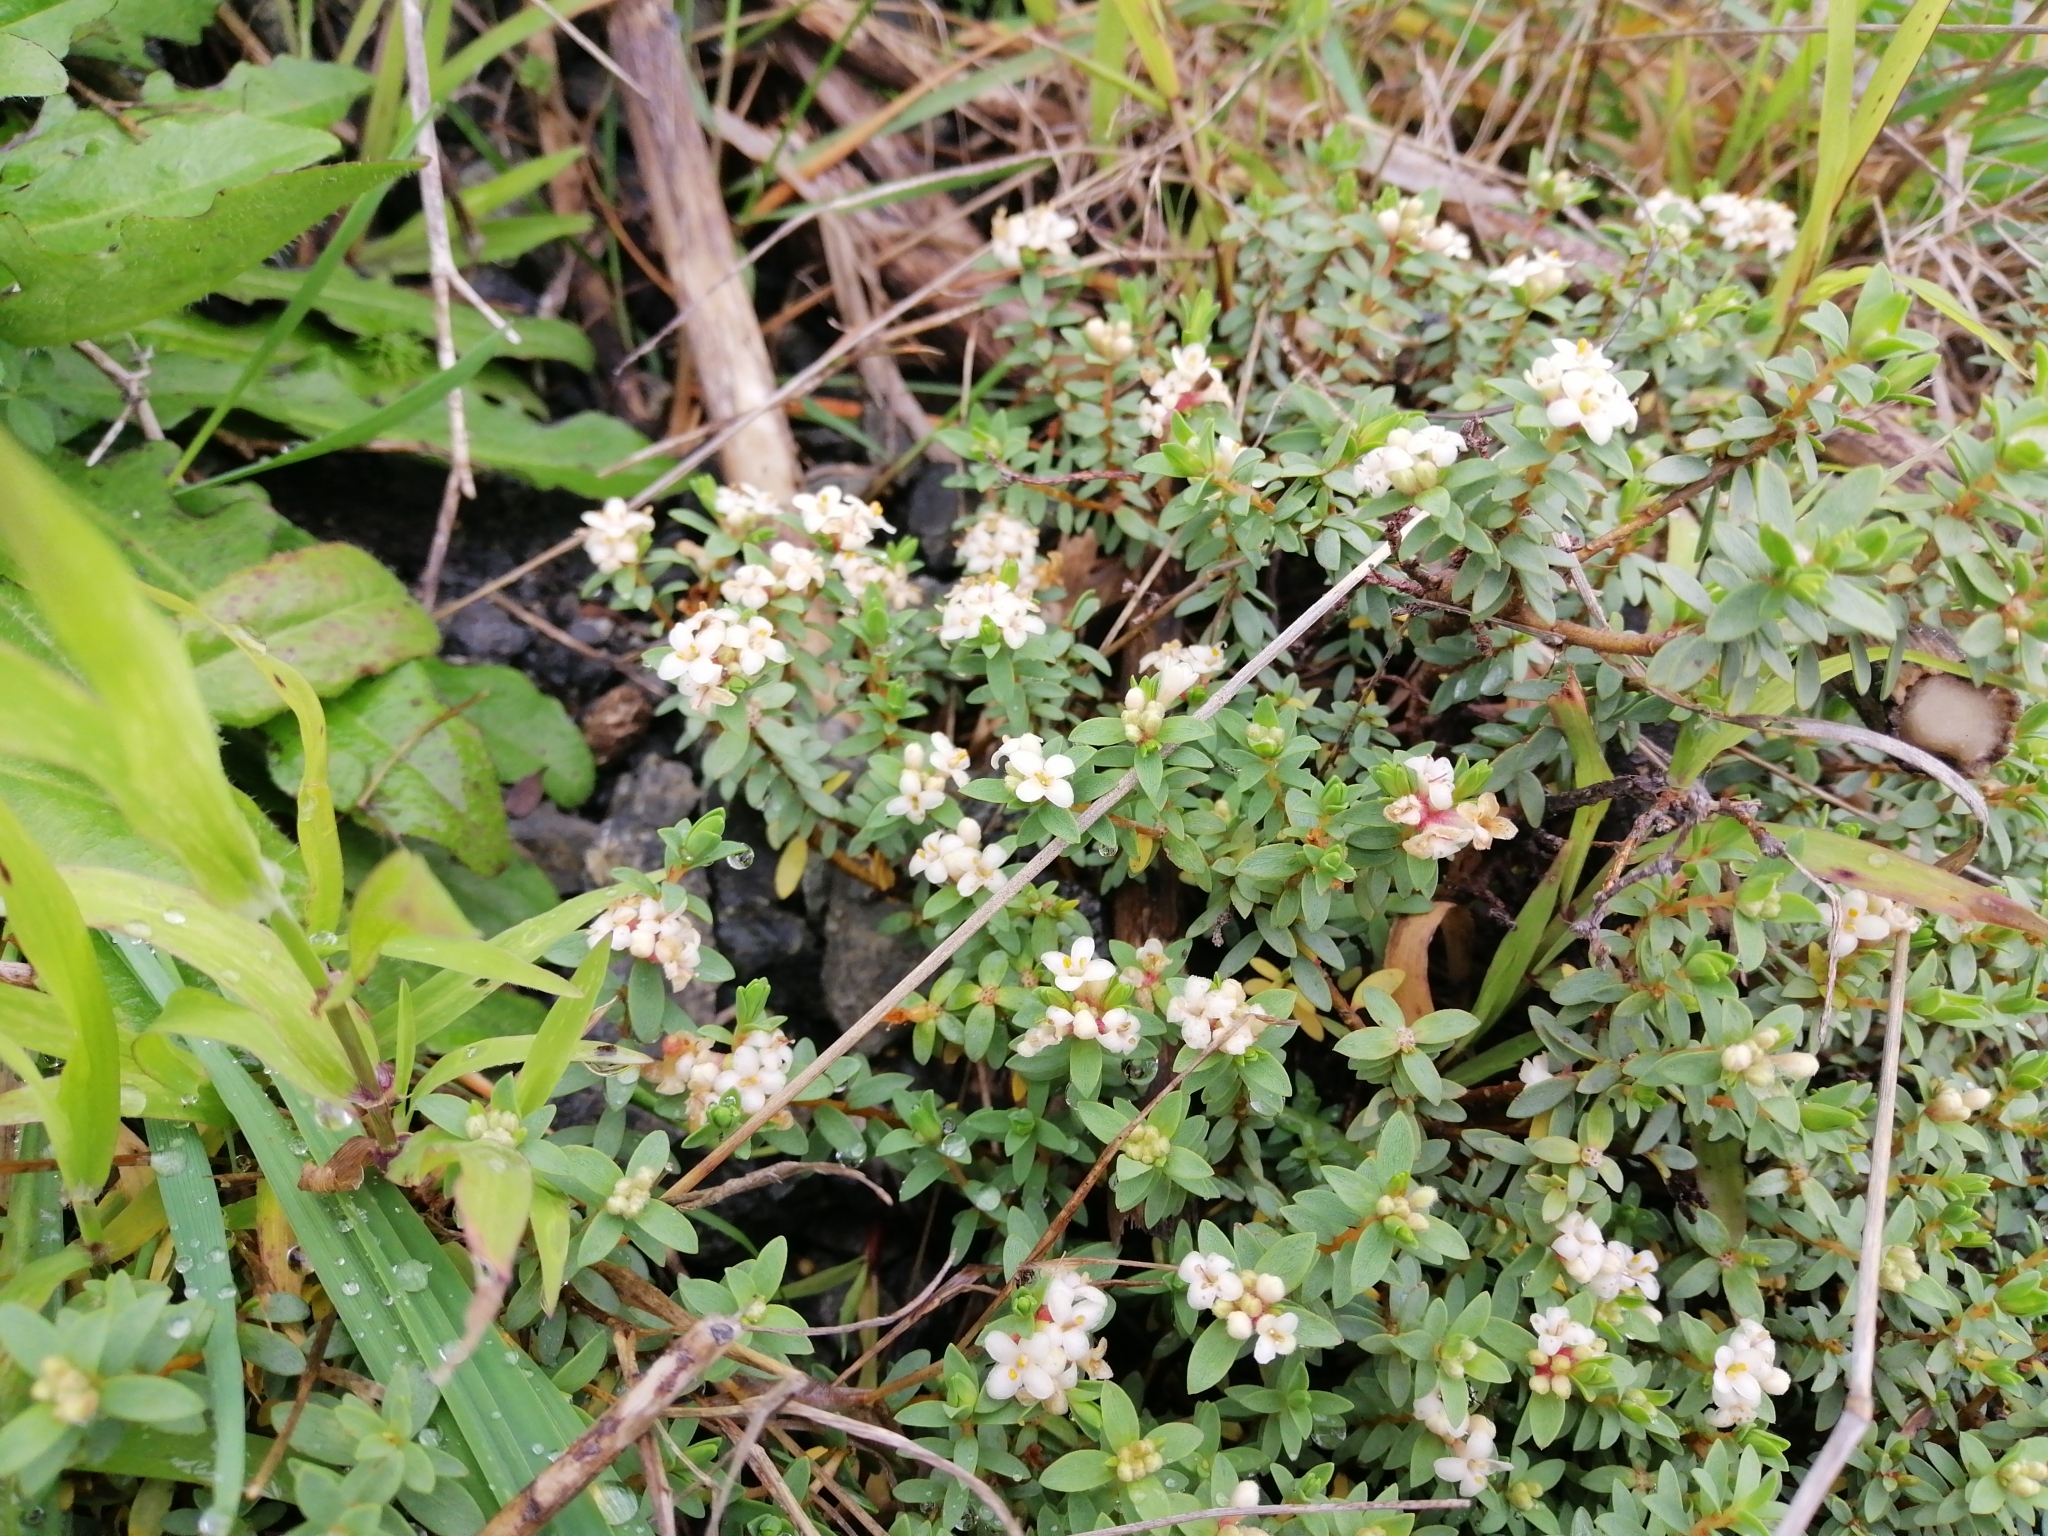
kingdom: Plantae
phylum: Tracheophyta
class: Magnoliopsida
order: Malvales
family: Thymelaeaceae
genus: Pimelea
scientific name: Pimelea prostrata
